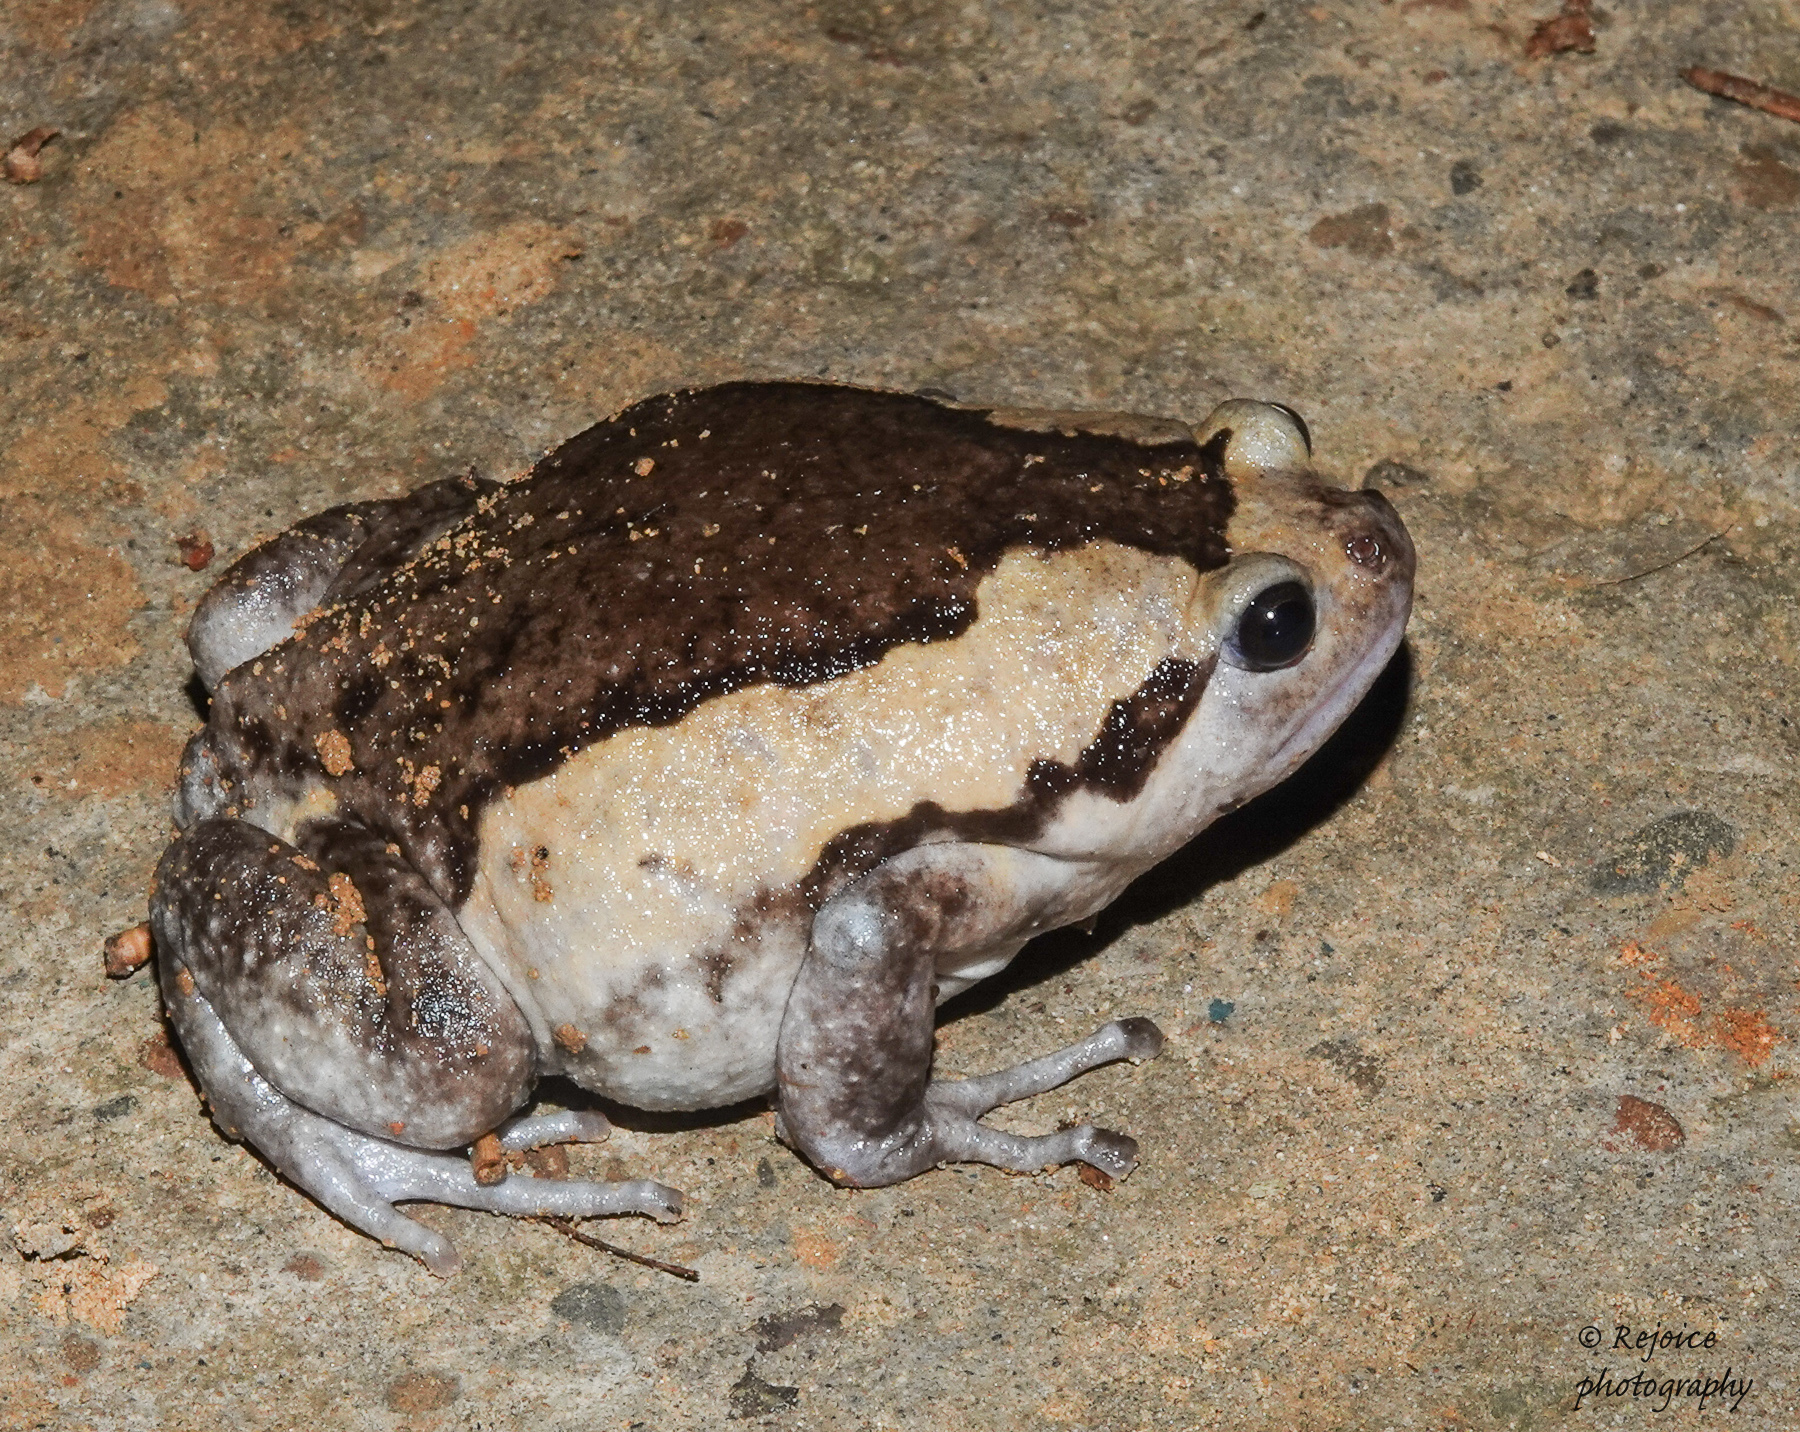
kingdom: Animalia
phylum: Chordata
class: Amphibia
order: Anura
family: Microhylidae
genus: Kaloula
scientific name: Kaloula pulchra
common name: Common,banded bullfrog
